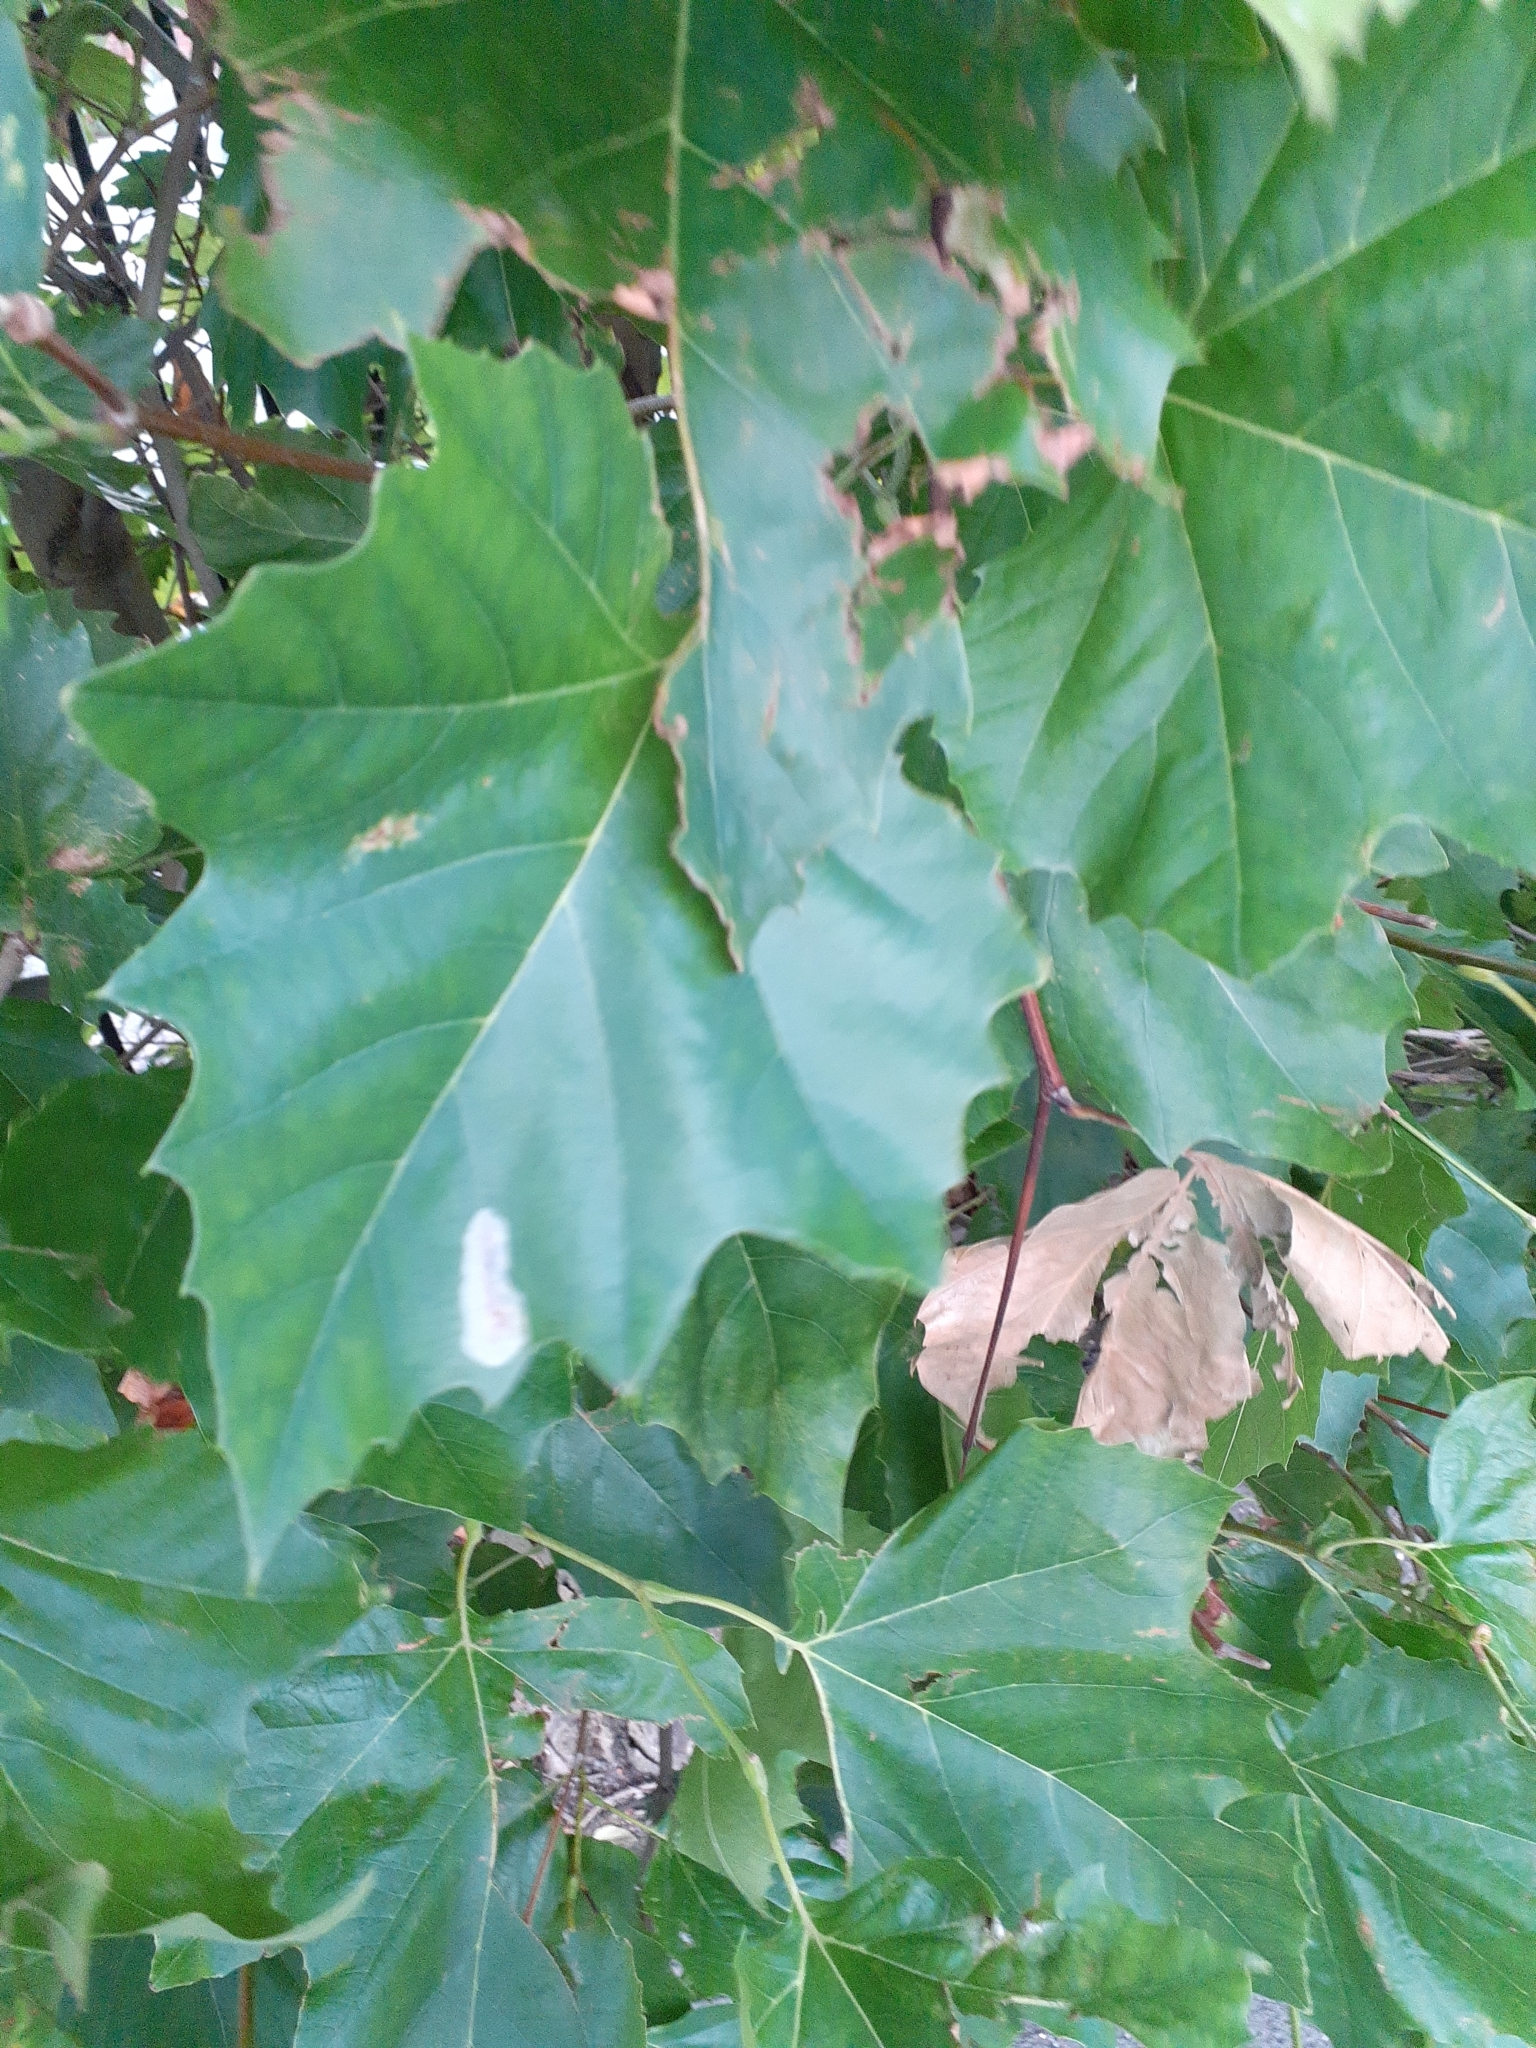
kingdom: Animalia
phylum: Arthropoda
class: Insecta
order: Lepidoptera
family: Gracillariidae
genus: Phyllonorycter
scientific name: Phyllonorycter platani
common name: London midget
